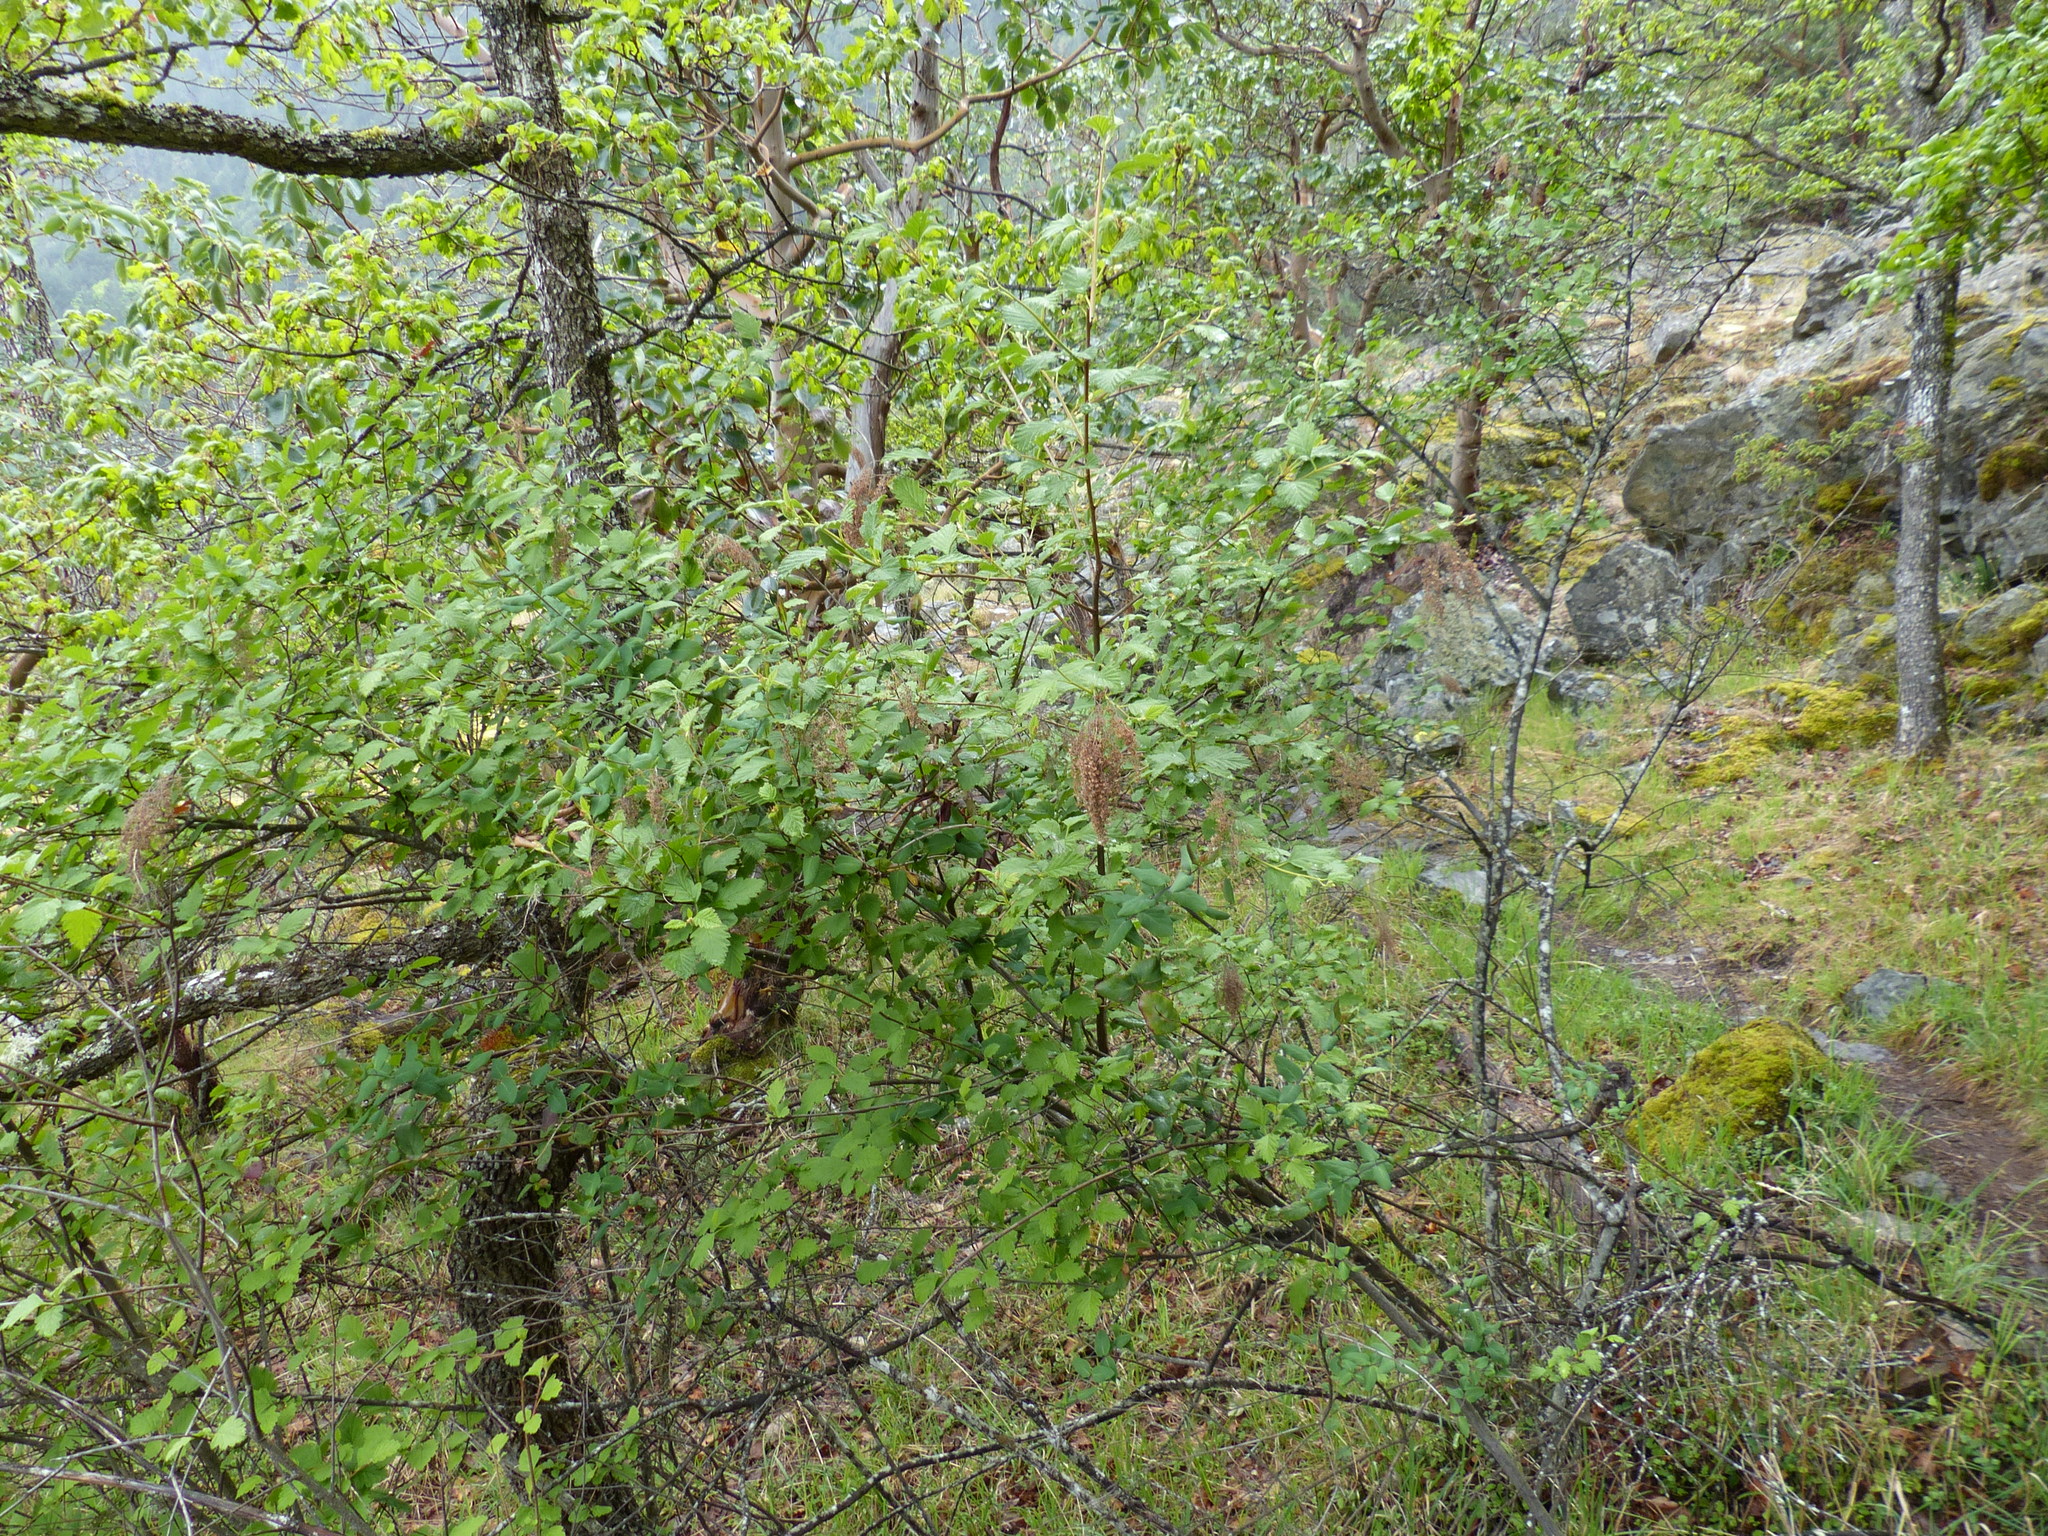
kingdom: Plantae
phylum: Tracheophyta
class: Magnoliopsida
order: Rosales
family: Rosaceae
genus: Holodiscus
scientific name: Holodiscus discolor
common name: Oceanspray
